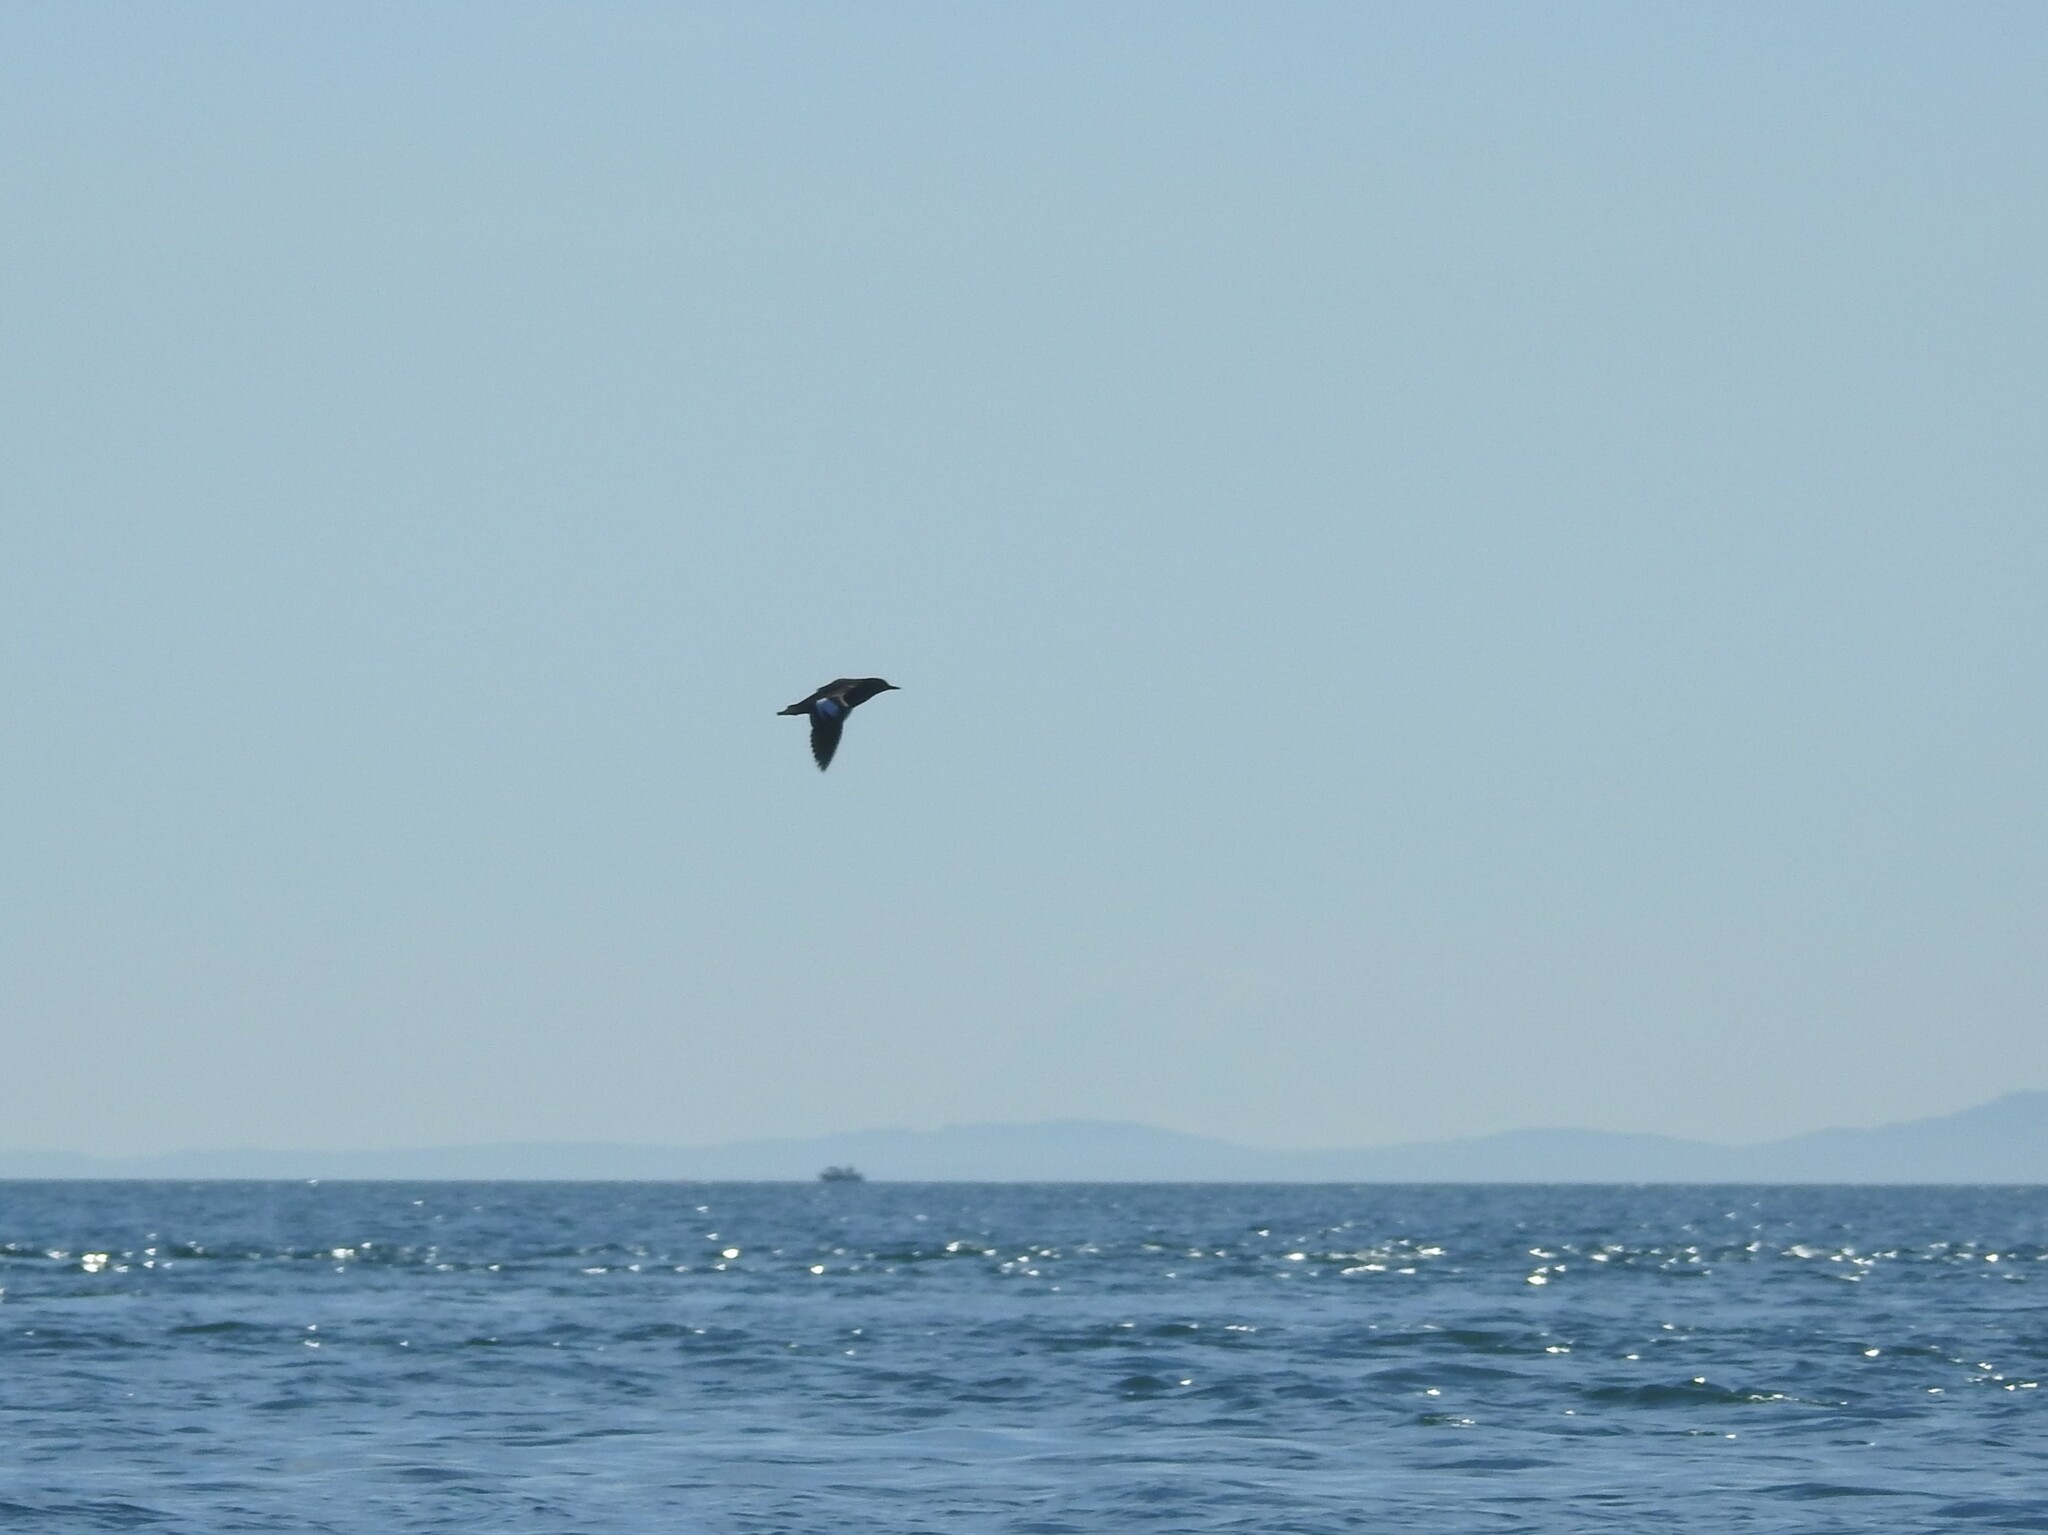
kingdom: Animalia
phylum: Chordata
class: Aves
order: Charadriiformes
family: Alcidae
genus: Cepphus
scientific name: Cepphus columba
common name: Pigeon guillemot
